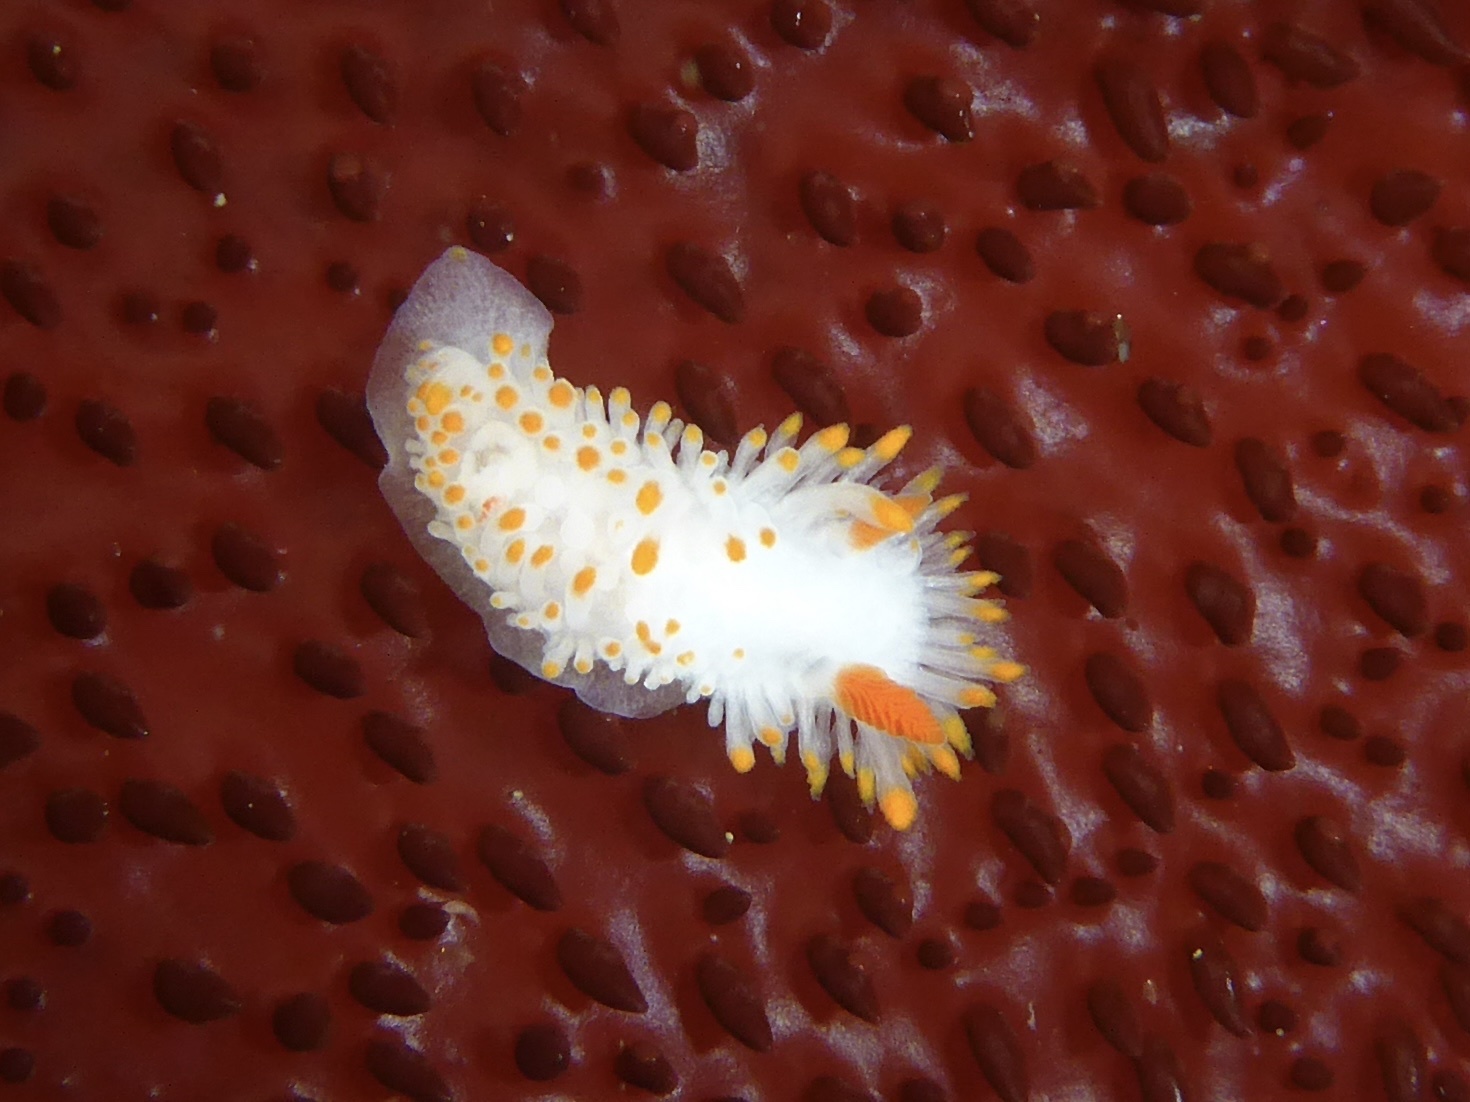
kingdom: Animalia
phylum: Mollusca
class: Gastropoda
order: Nudibranchia
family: Polyceridae
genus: Limacia
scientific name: Limacia cockerelli
